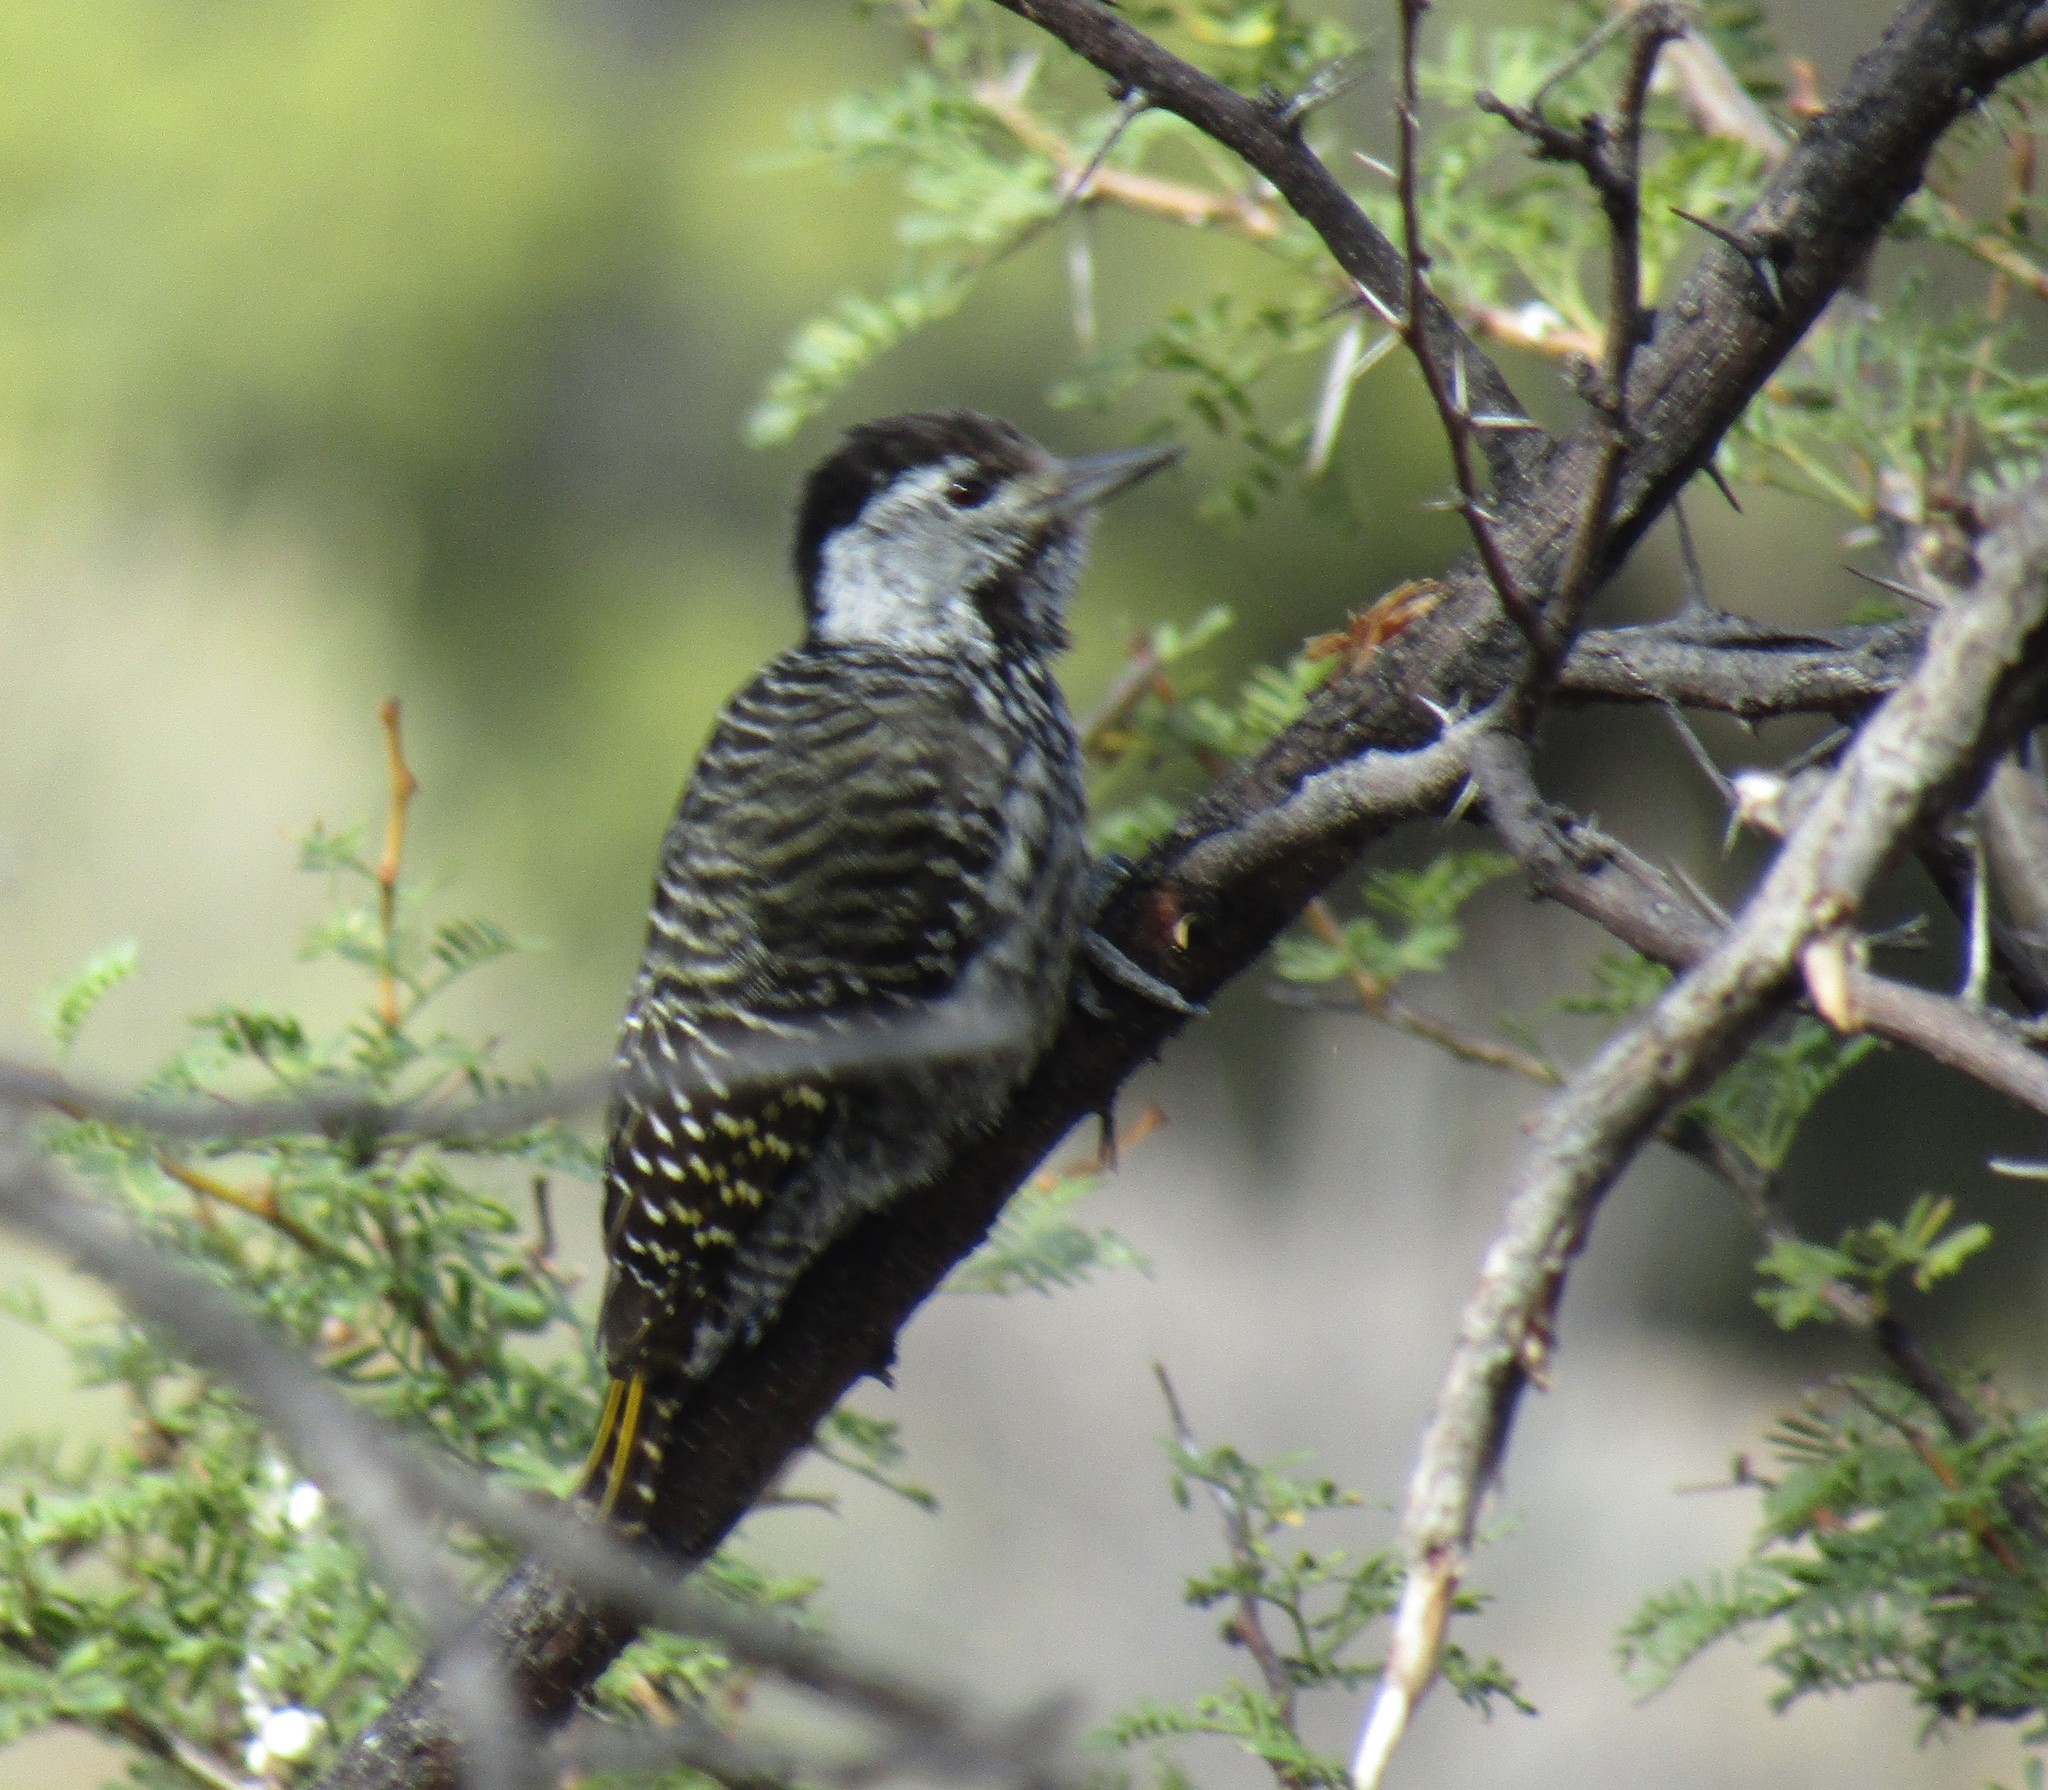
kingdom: Animalia
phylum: Chordata
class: Aves
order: Piciformes
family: Picidae
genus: Dendropicos
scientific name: Dendropicos fuscescens
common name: Cardinal woodpecker
